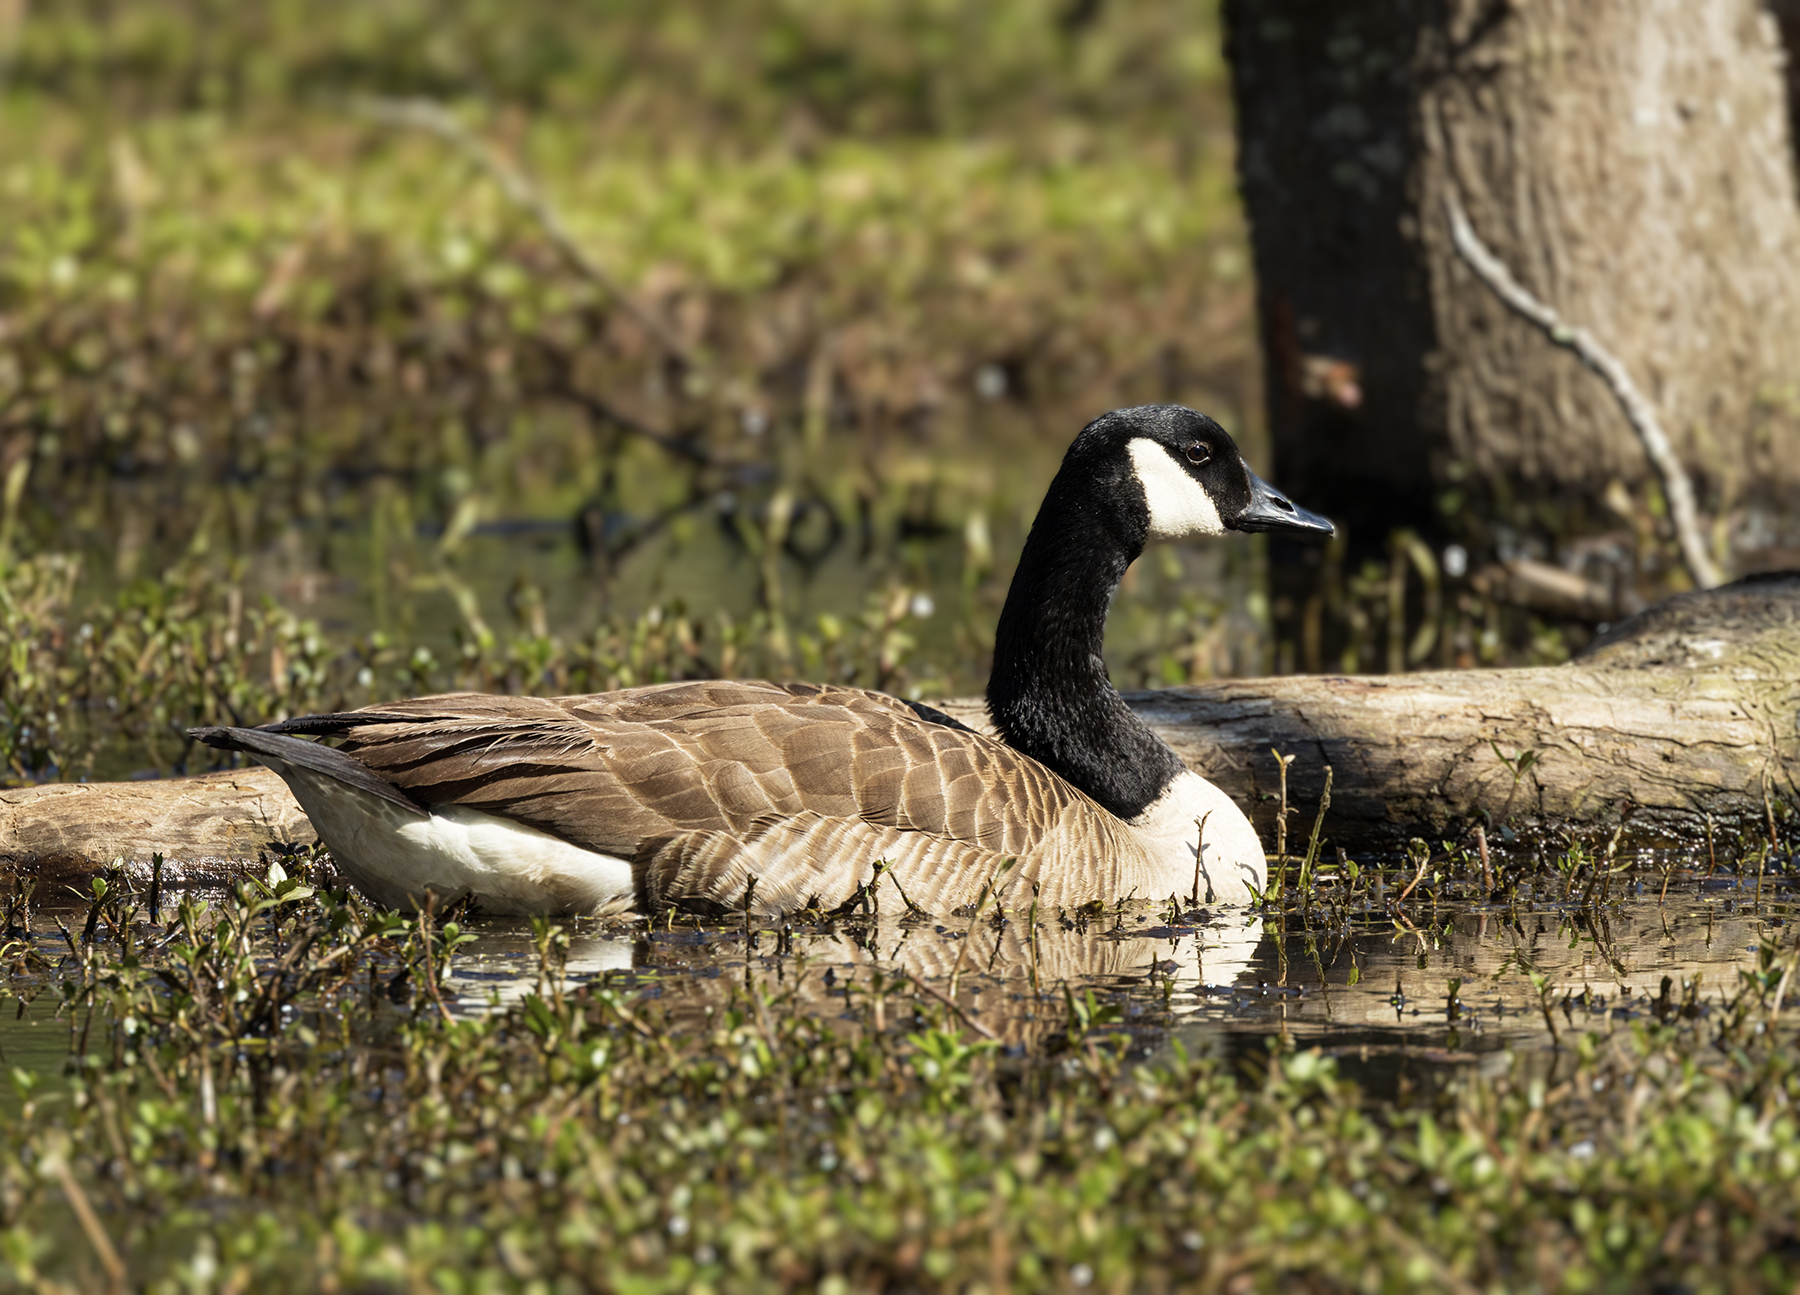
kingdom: Animalia
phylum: Chordata
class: Aves
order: Anseriformes
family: Anatidae
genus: Branta
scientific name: Branta canadensis
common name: Canada goose
